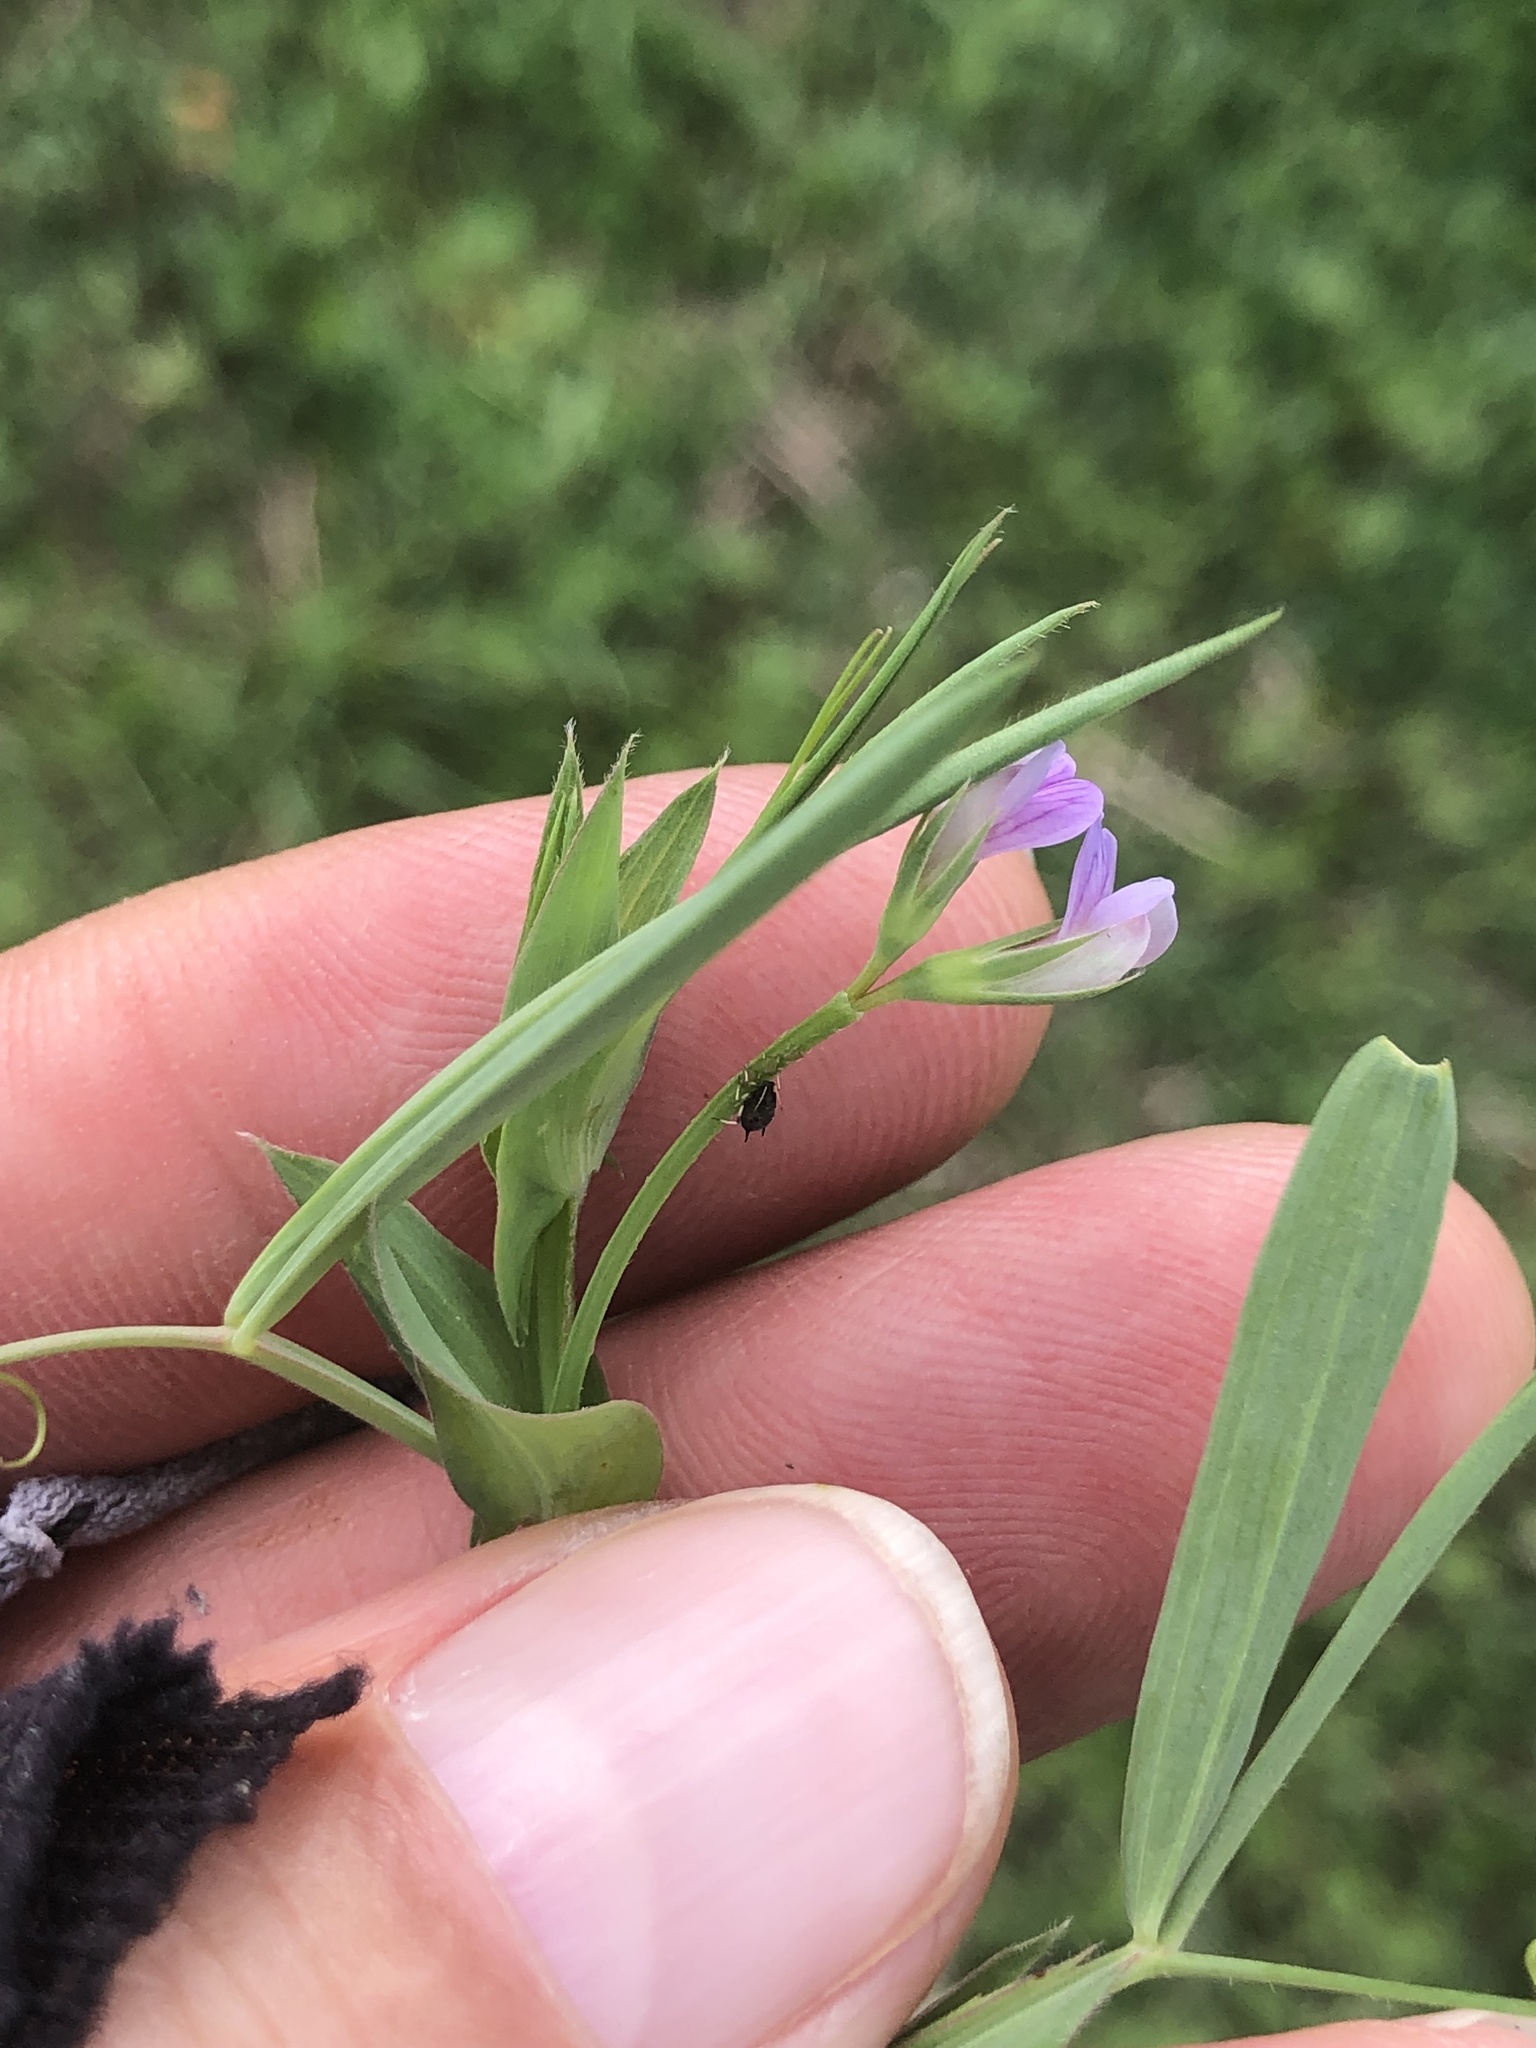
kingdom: Plantae
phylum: Tracheophyta
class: Magnoliopsida
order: Fabales
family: Fabaceae
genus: Lathyrus
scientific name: Lathyrus pusillus
